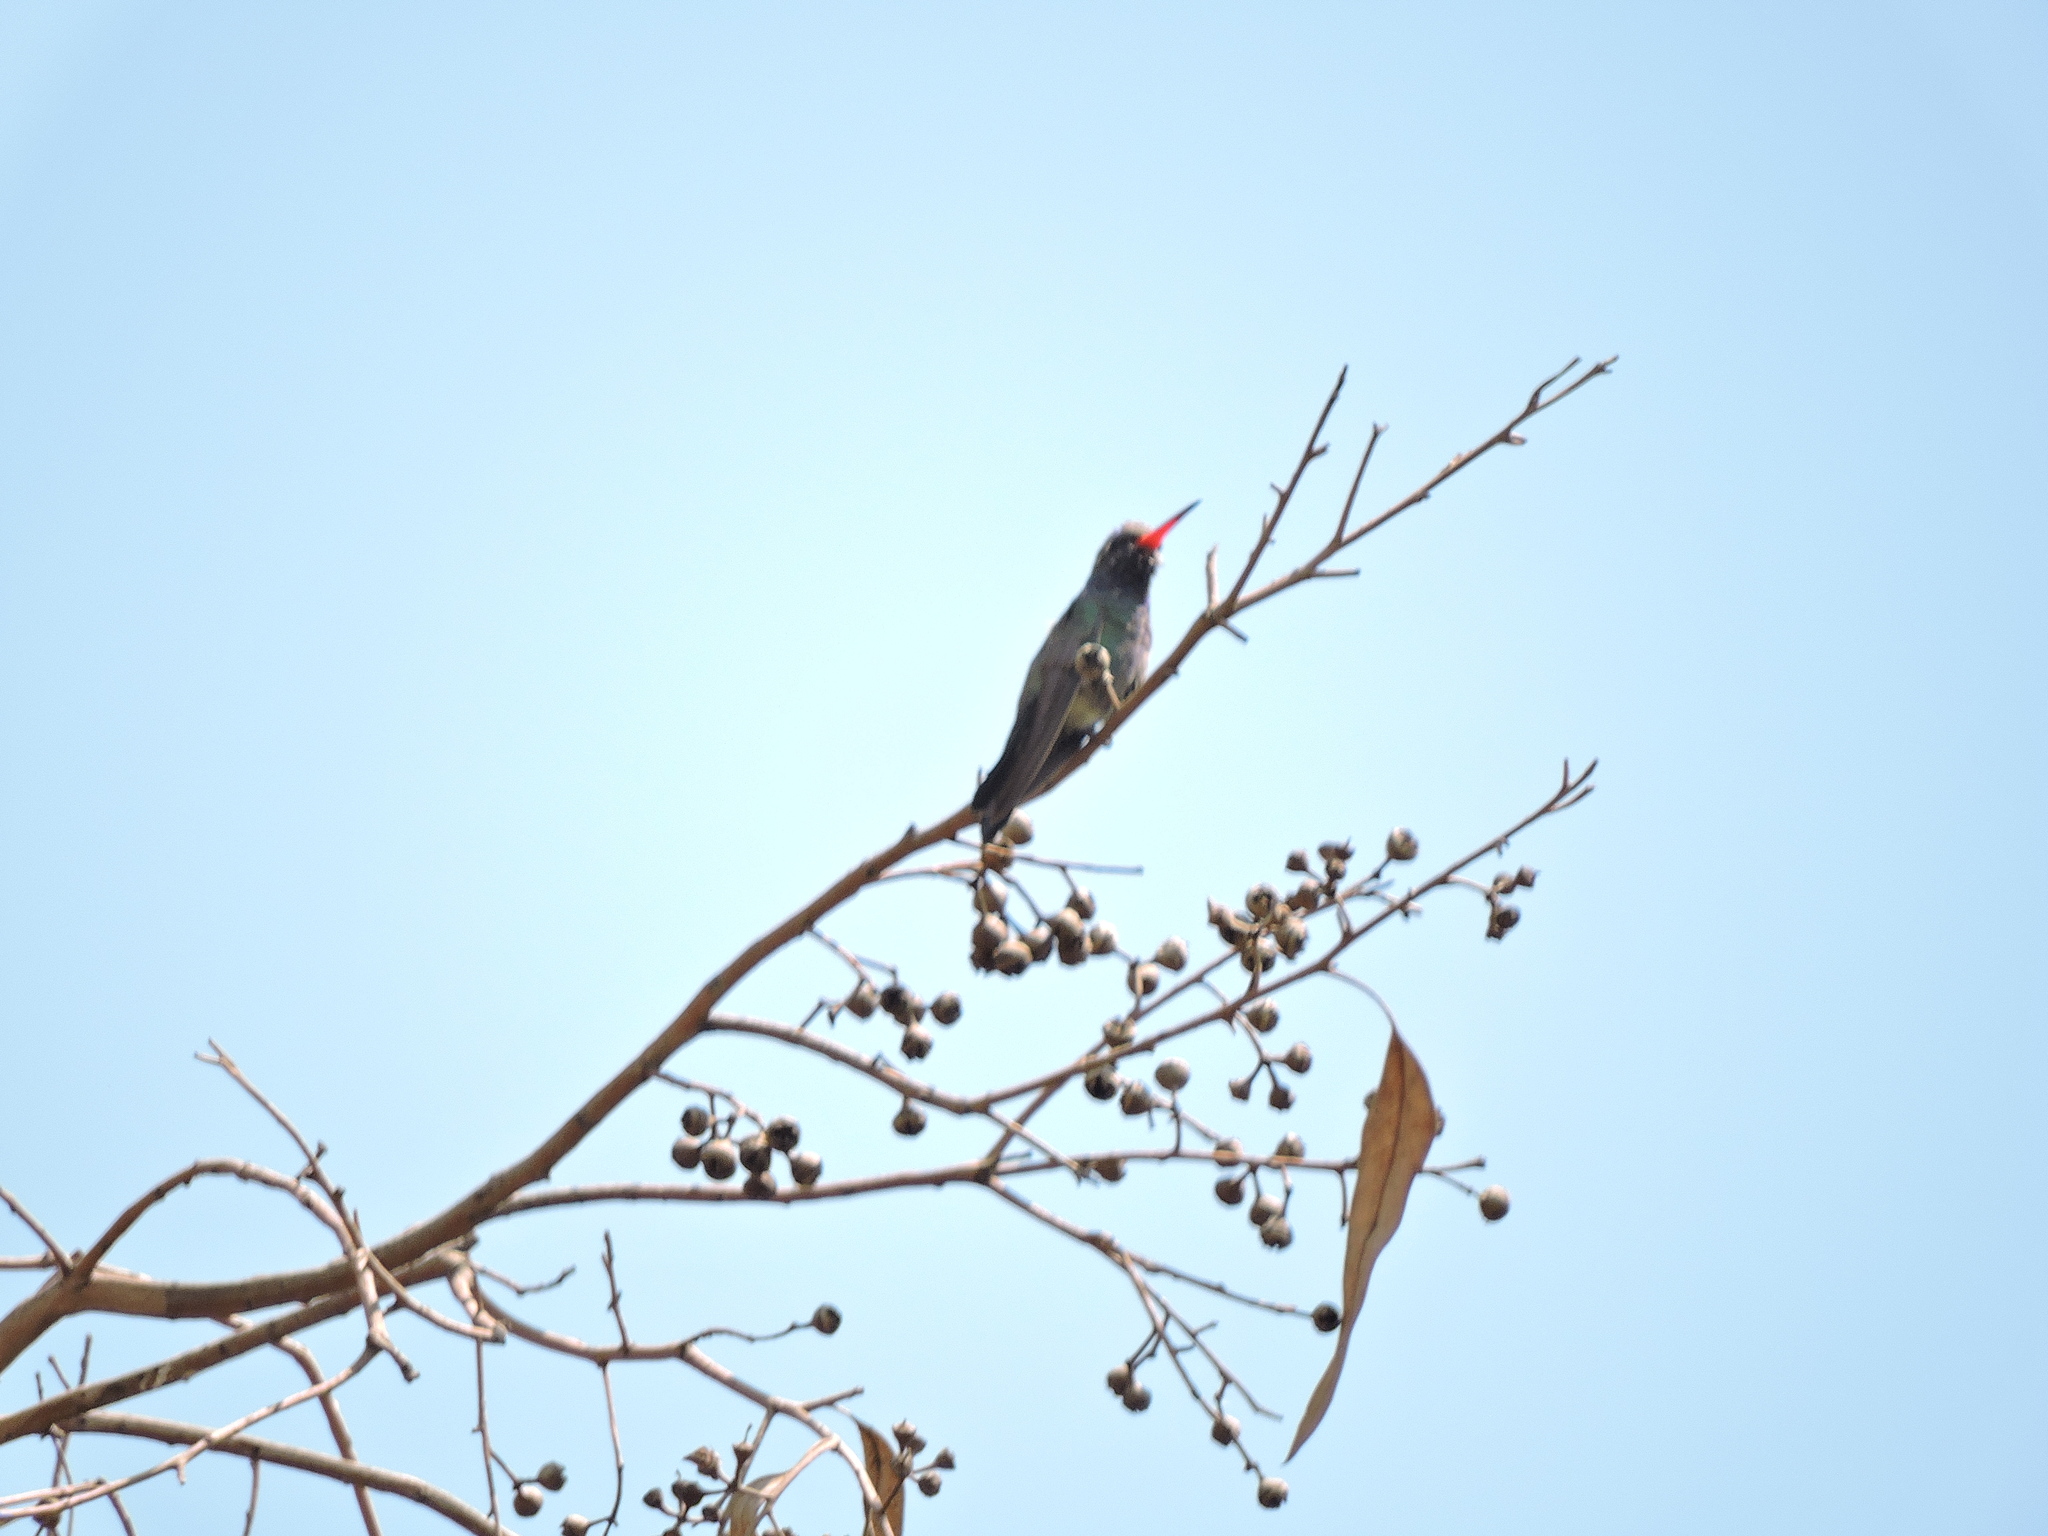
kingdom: Animalia
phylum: Chordata
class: Aves
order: Apodiformes
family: Trochilidae
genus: Cynanthus
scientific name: Cynanthus latirostris
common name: Broad-billed hummingbird
